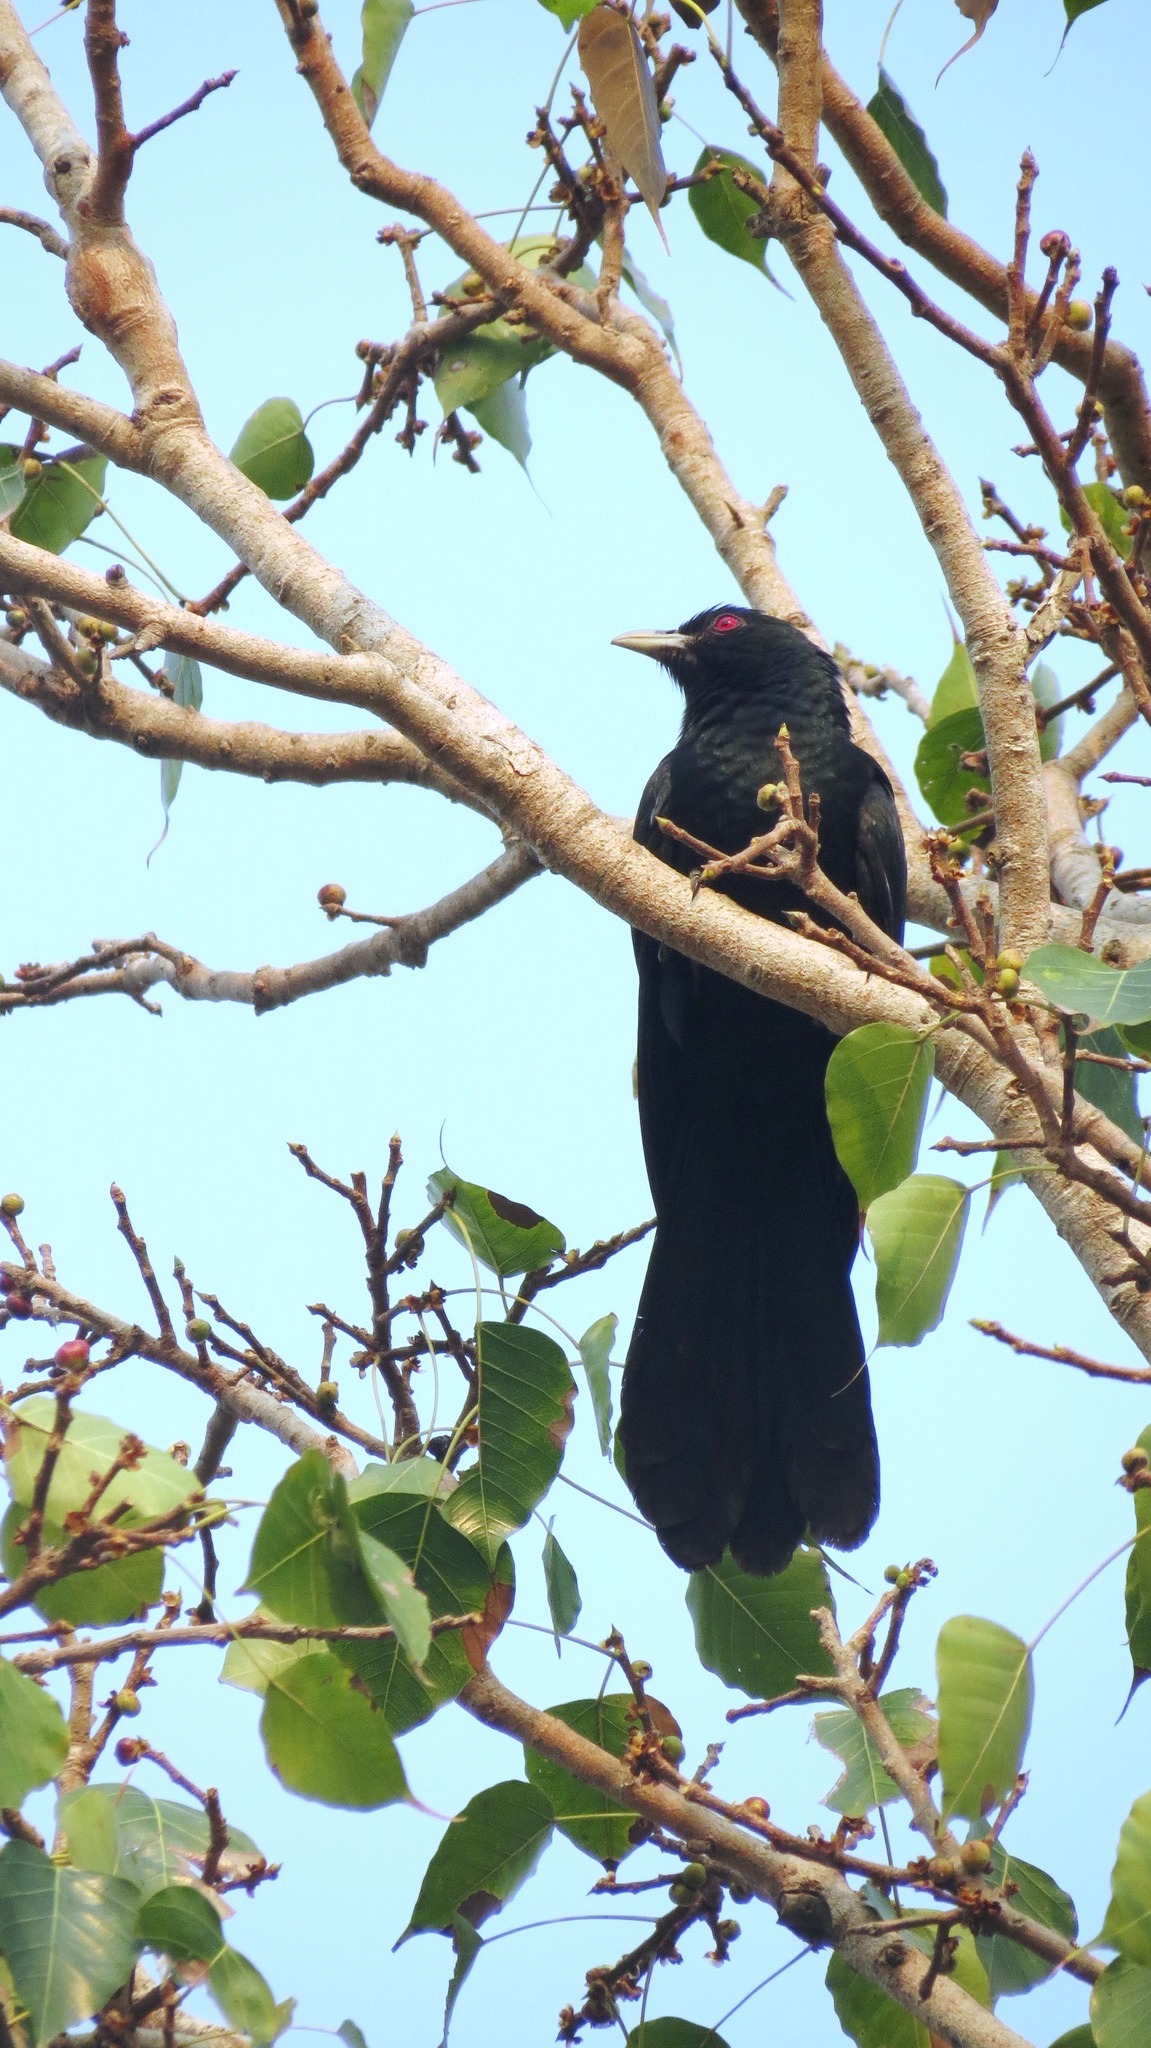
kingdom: Animalia
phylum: Chordata
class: Aves
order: Cuculiformes
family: Cuculidae
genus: Eudynamys
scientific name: Eudynamys scolopaceus
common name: Asian koel
